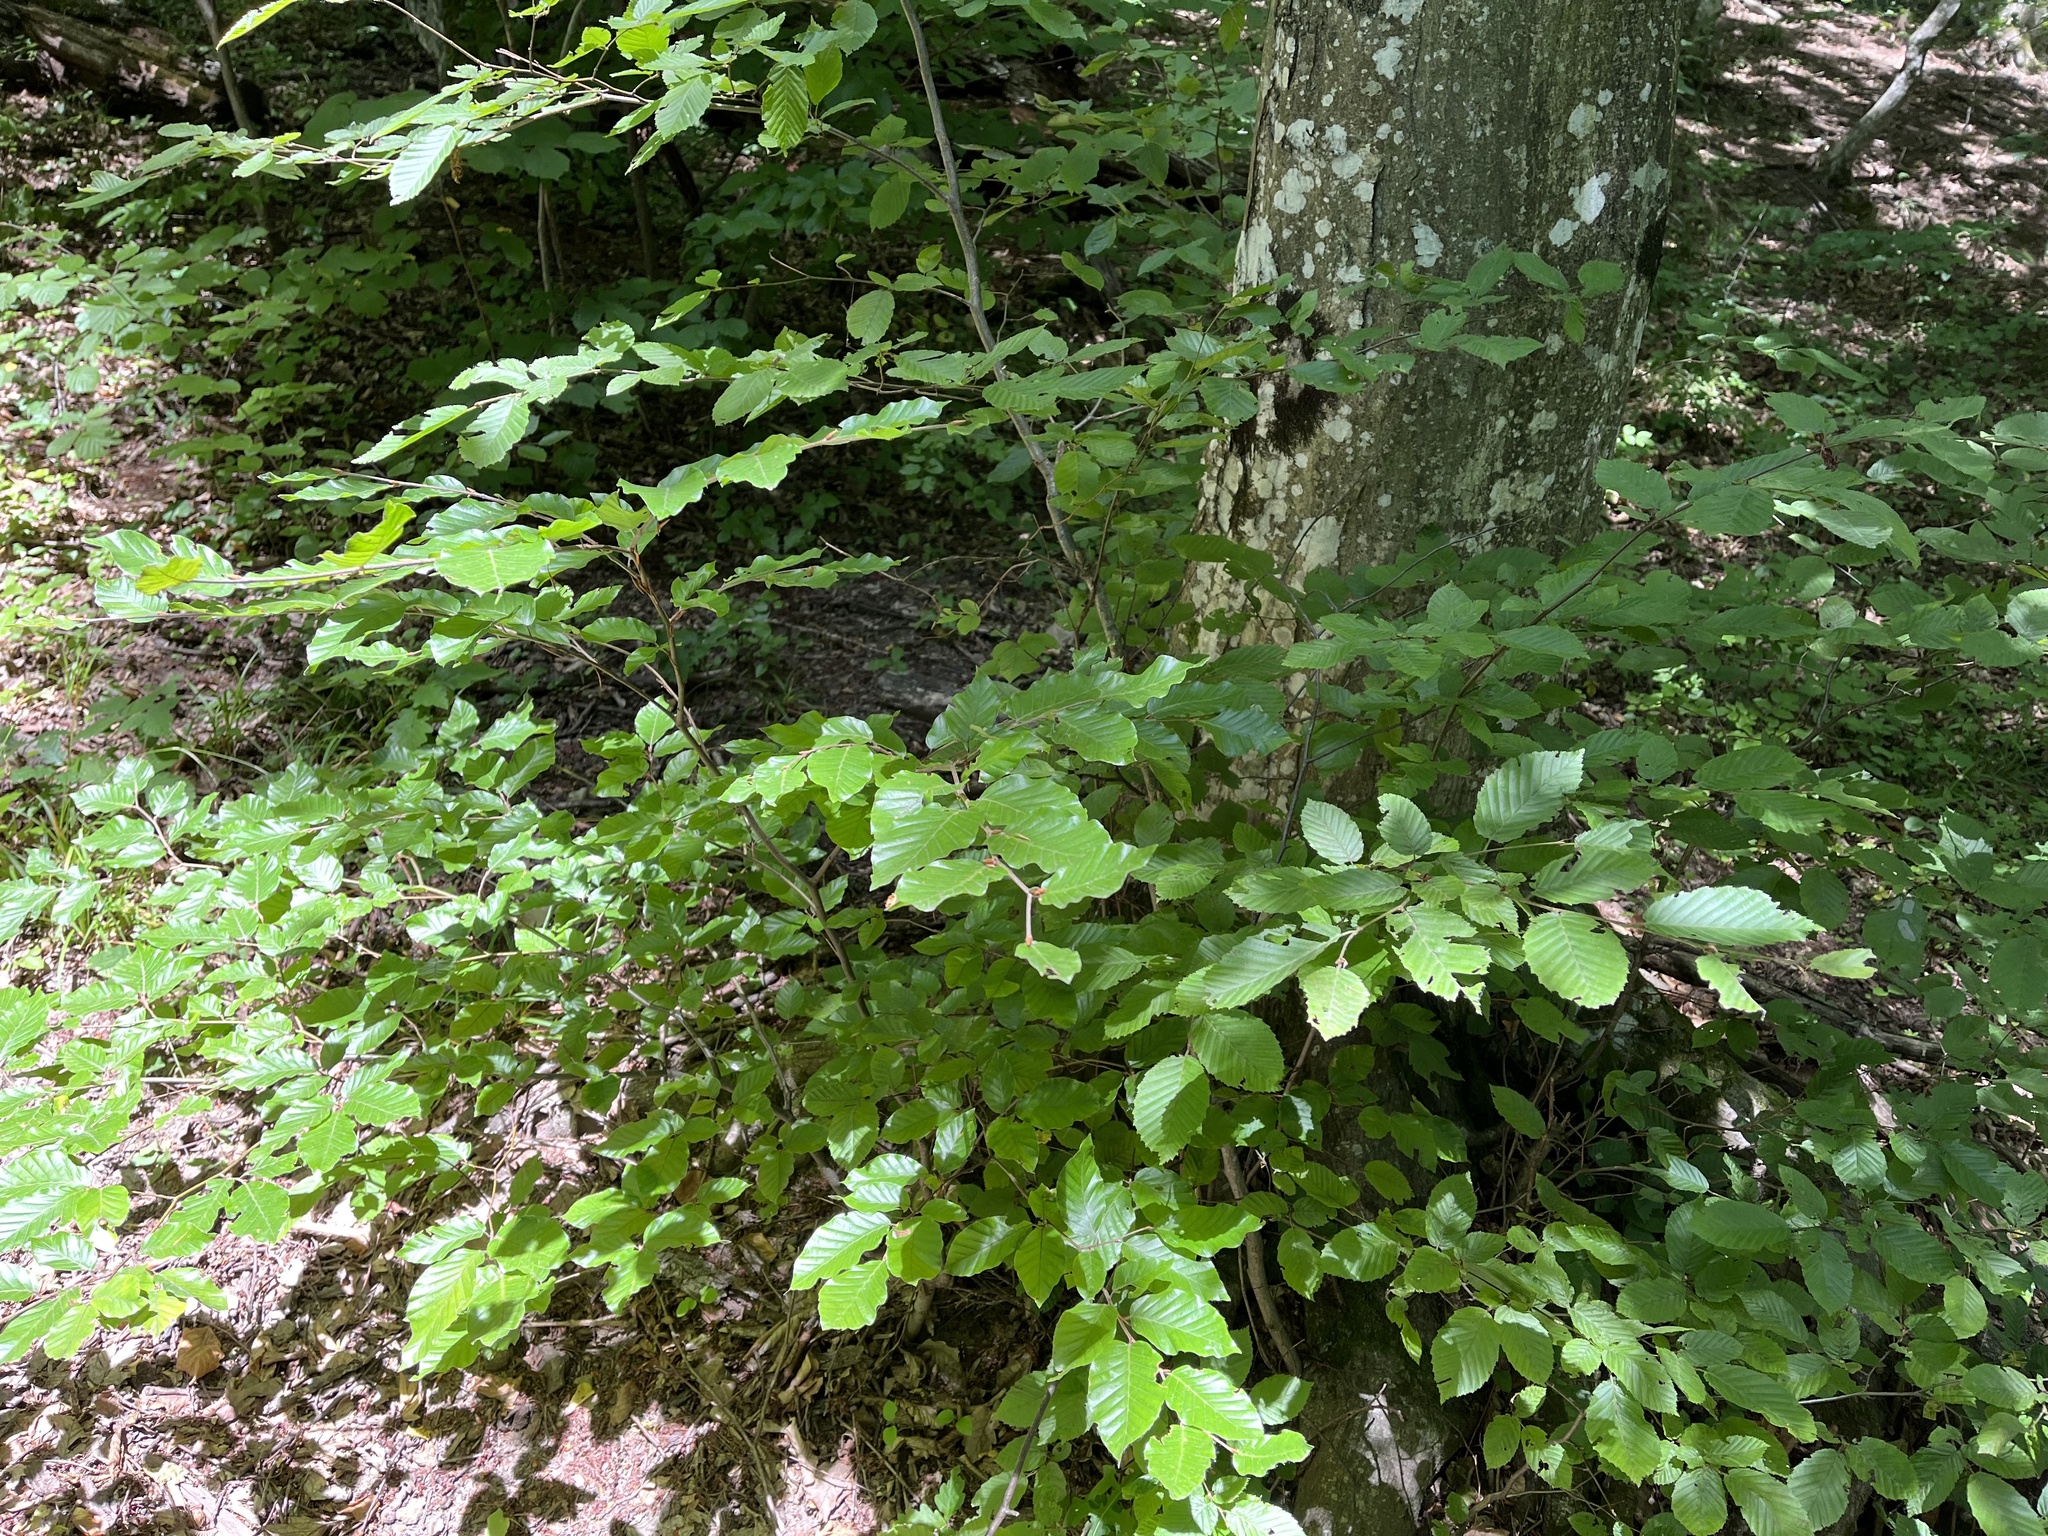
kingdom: Plantae
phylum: Tracheophyta
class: Magnoliopsida
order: Fagales
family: Fagaceae
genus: Fagus
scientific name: Fagus sylvatica
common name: Beech
